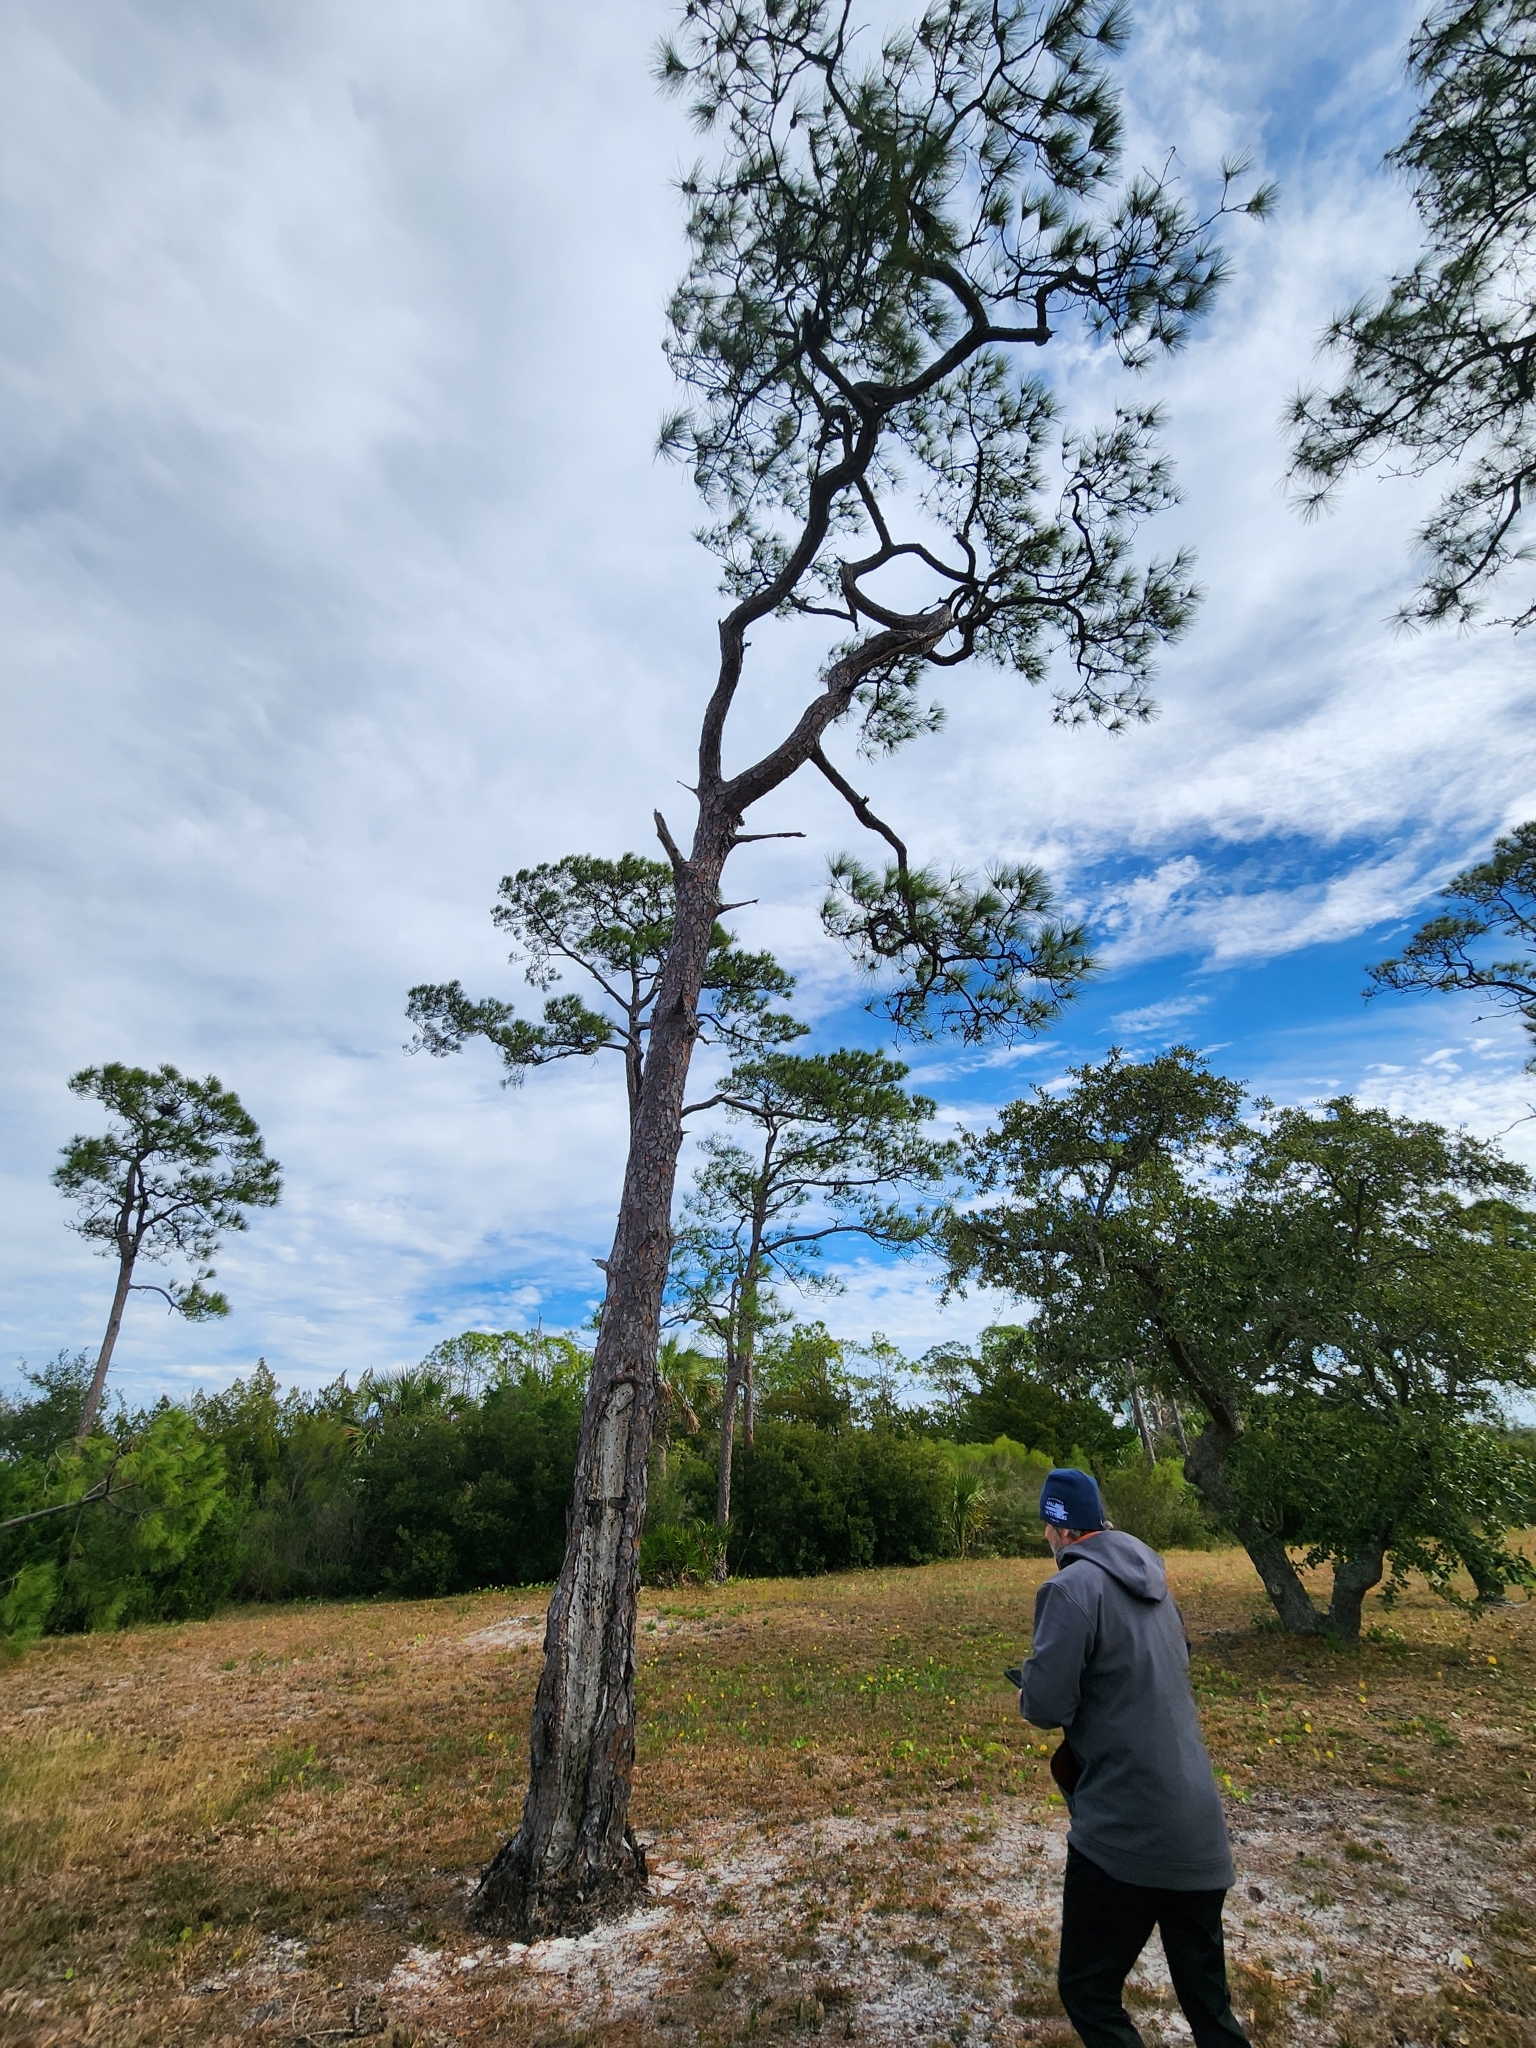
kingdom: Plantae
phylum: Tracheophyta
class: Pinopsida
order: Pinales
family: Pinaceae
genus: Pinus
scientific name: Pinus elliottii
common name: Slash pine
